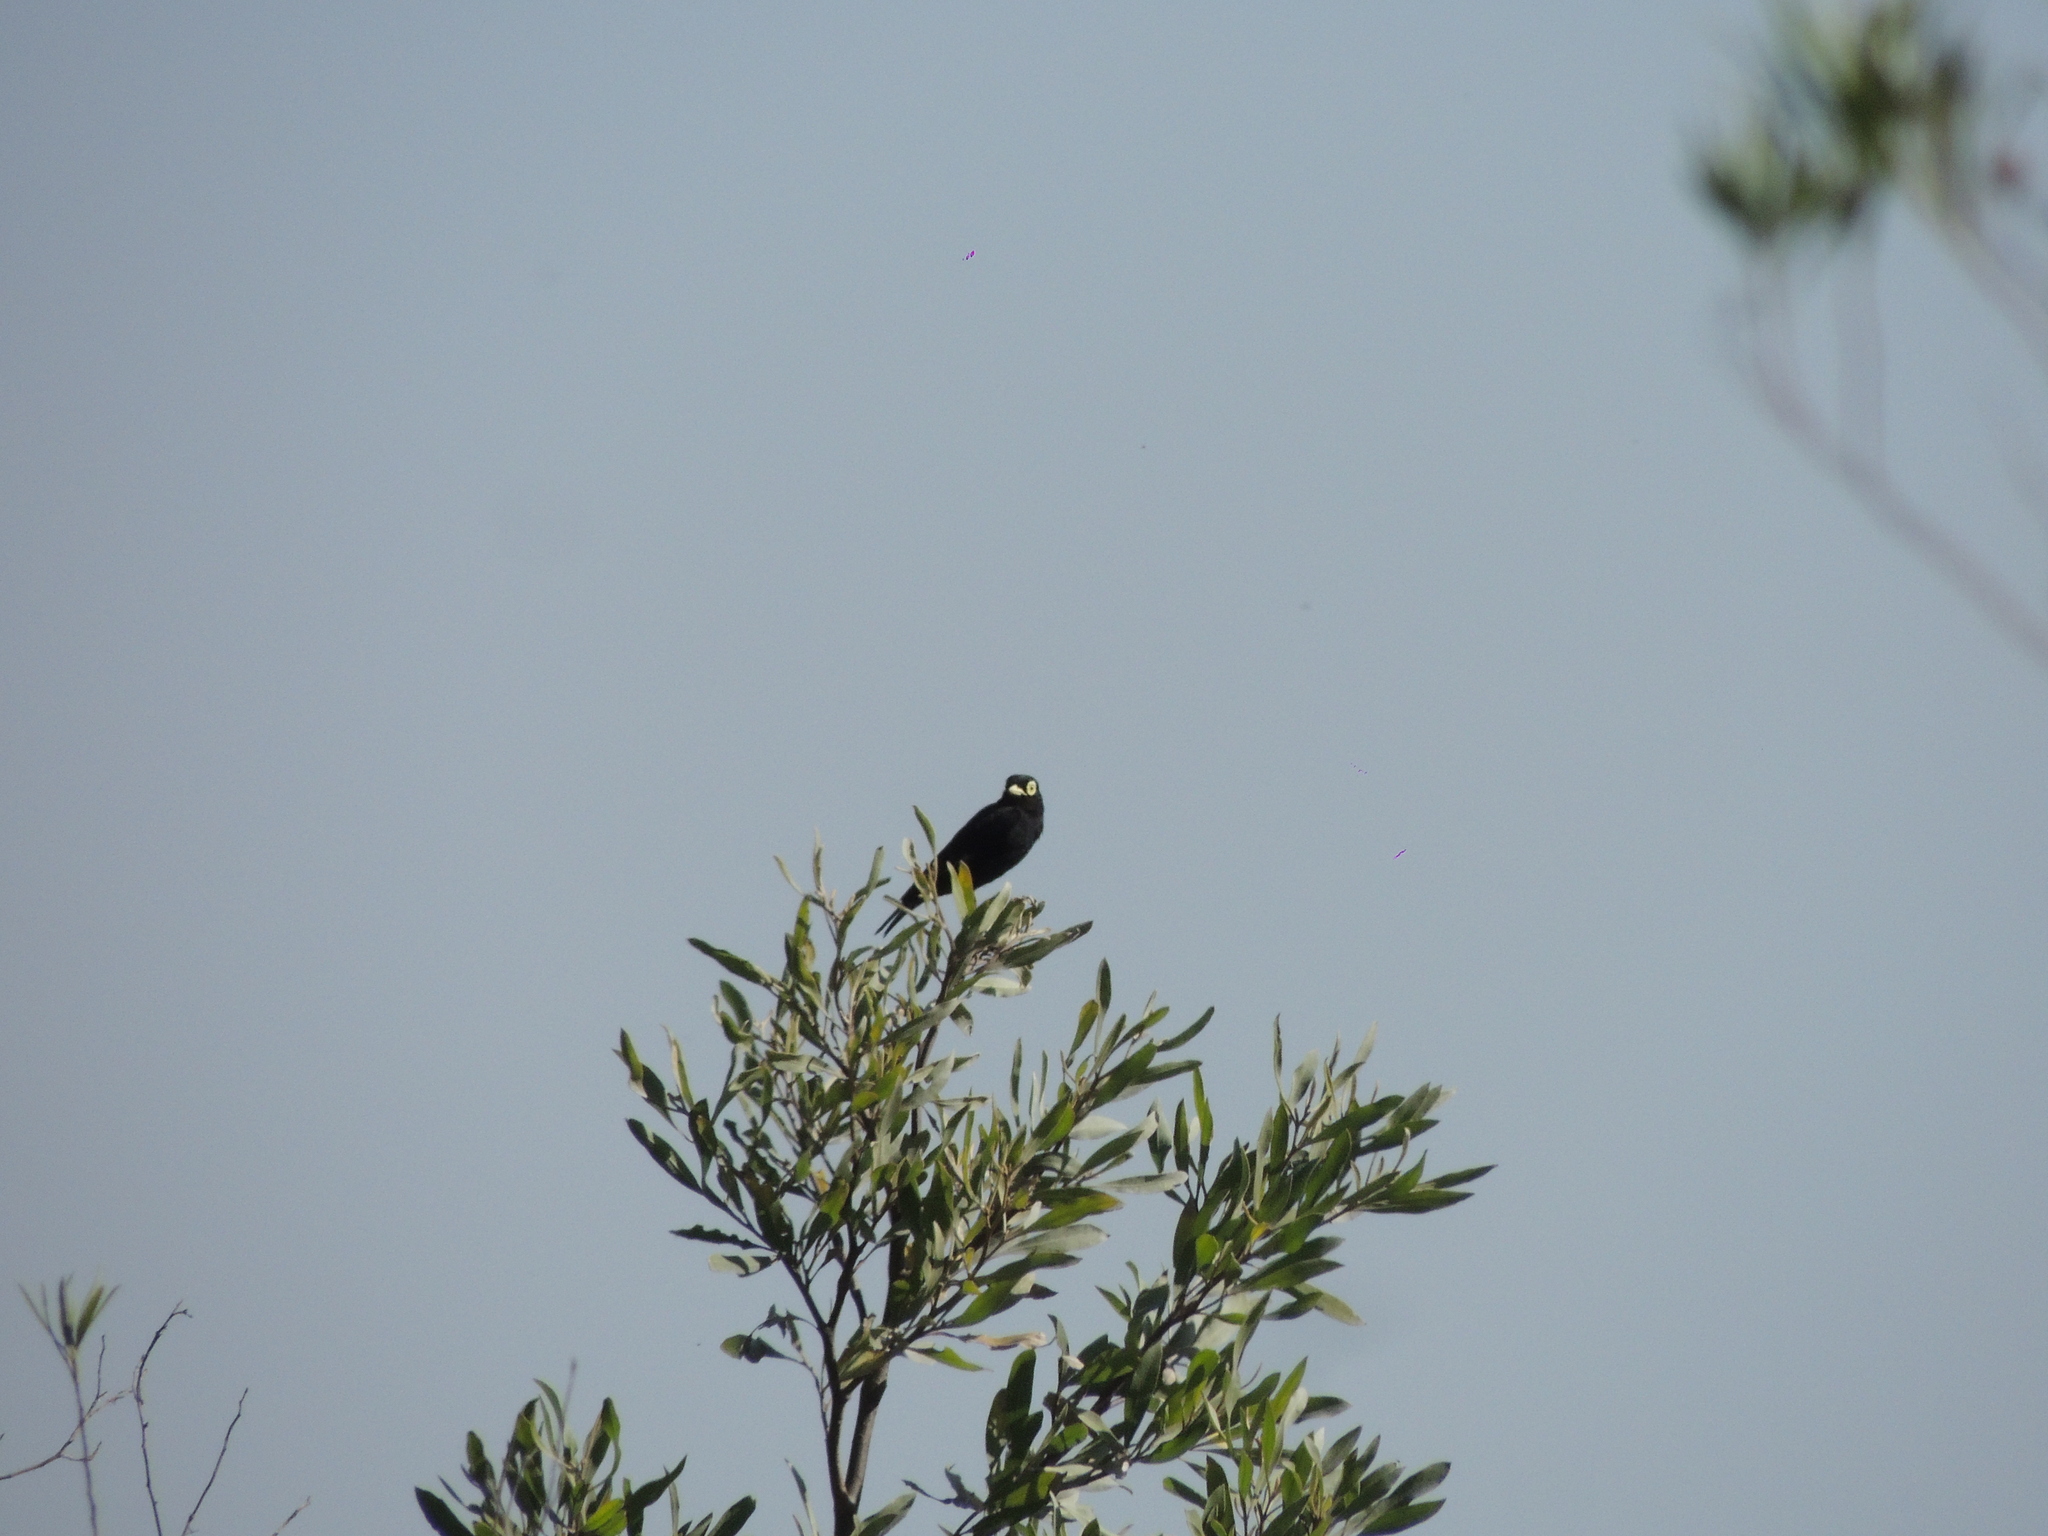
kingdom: Animalia
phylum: Chordata
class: Aves
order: Passeriformes
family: Tyrannidae
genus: Hymenops
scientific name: Hymenops perspicillatus
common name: Spectacled tyrant
